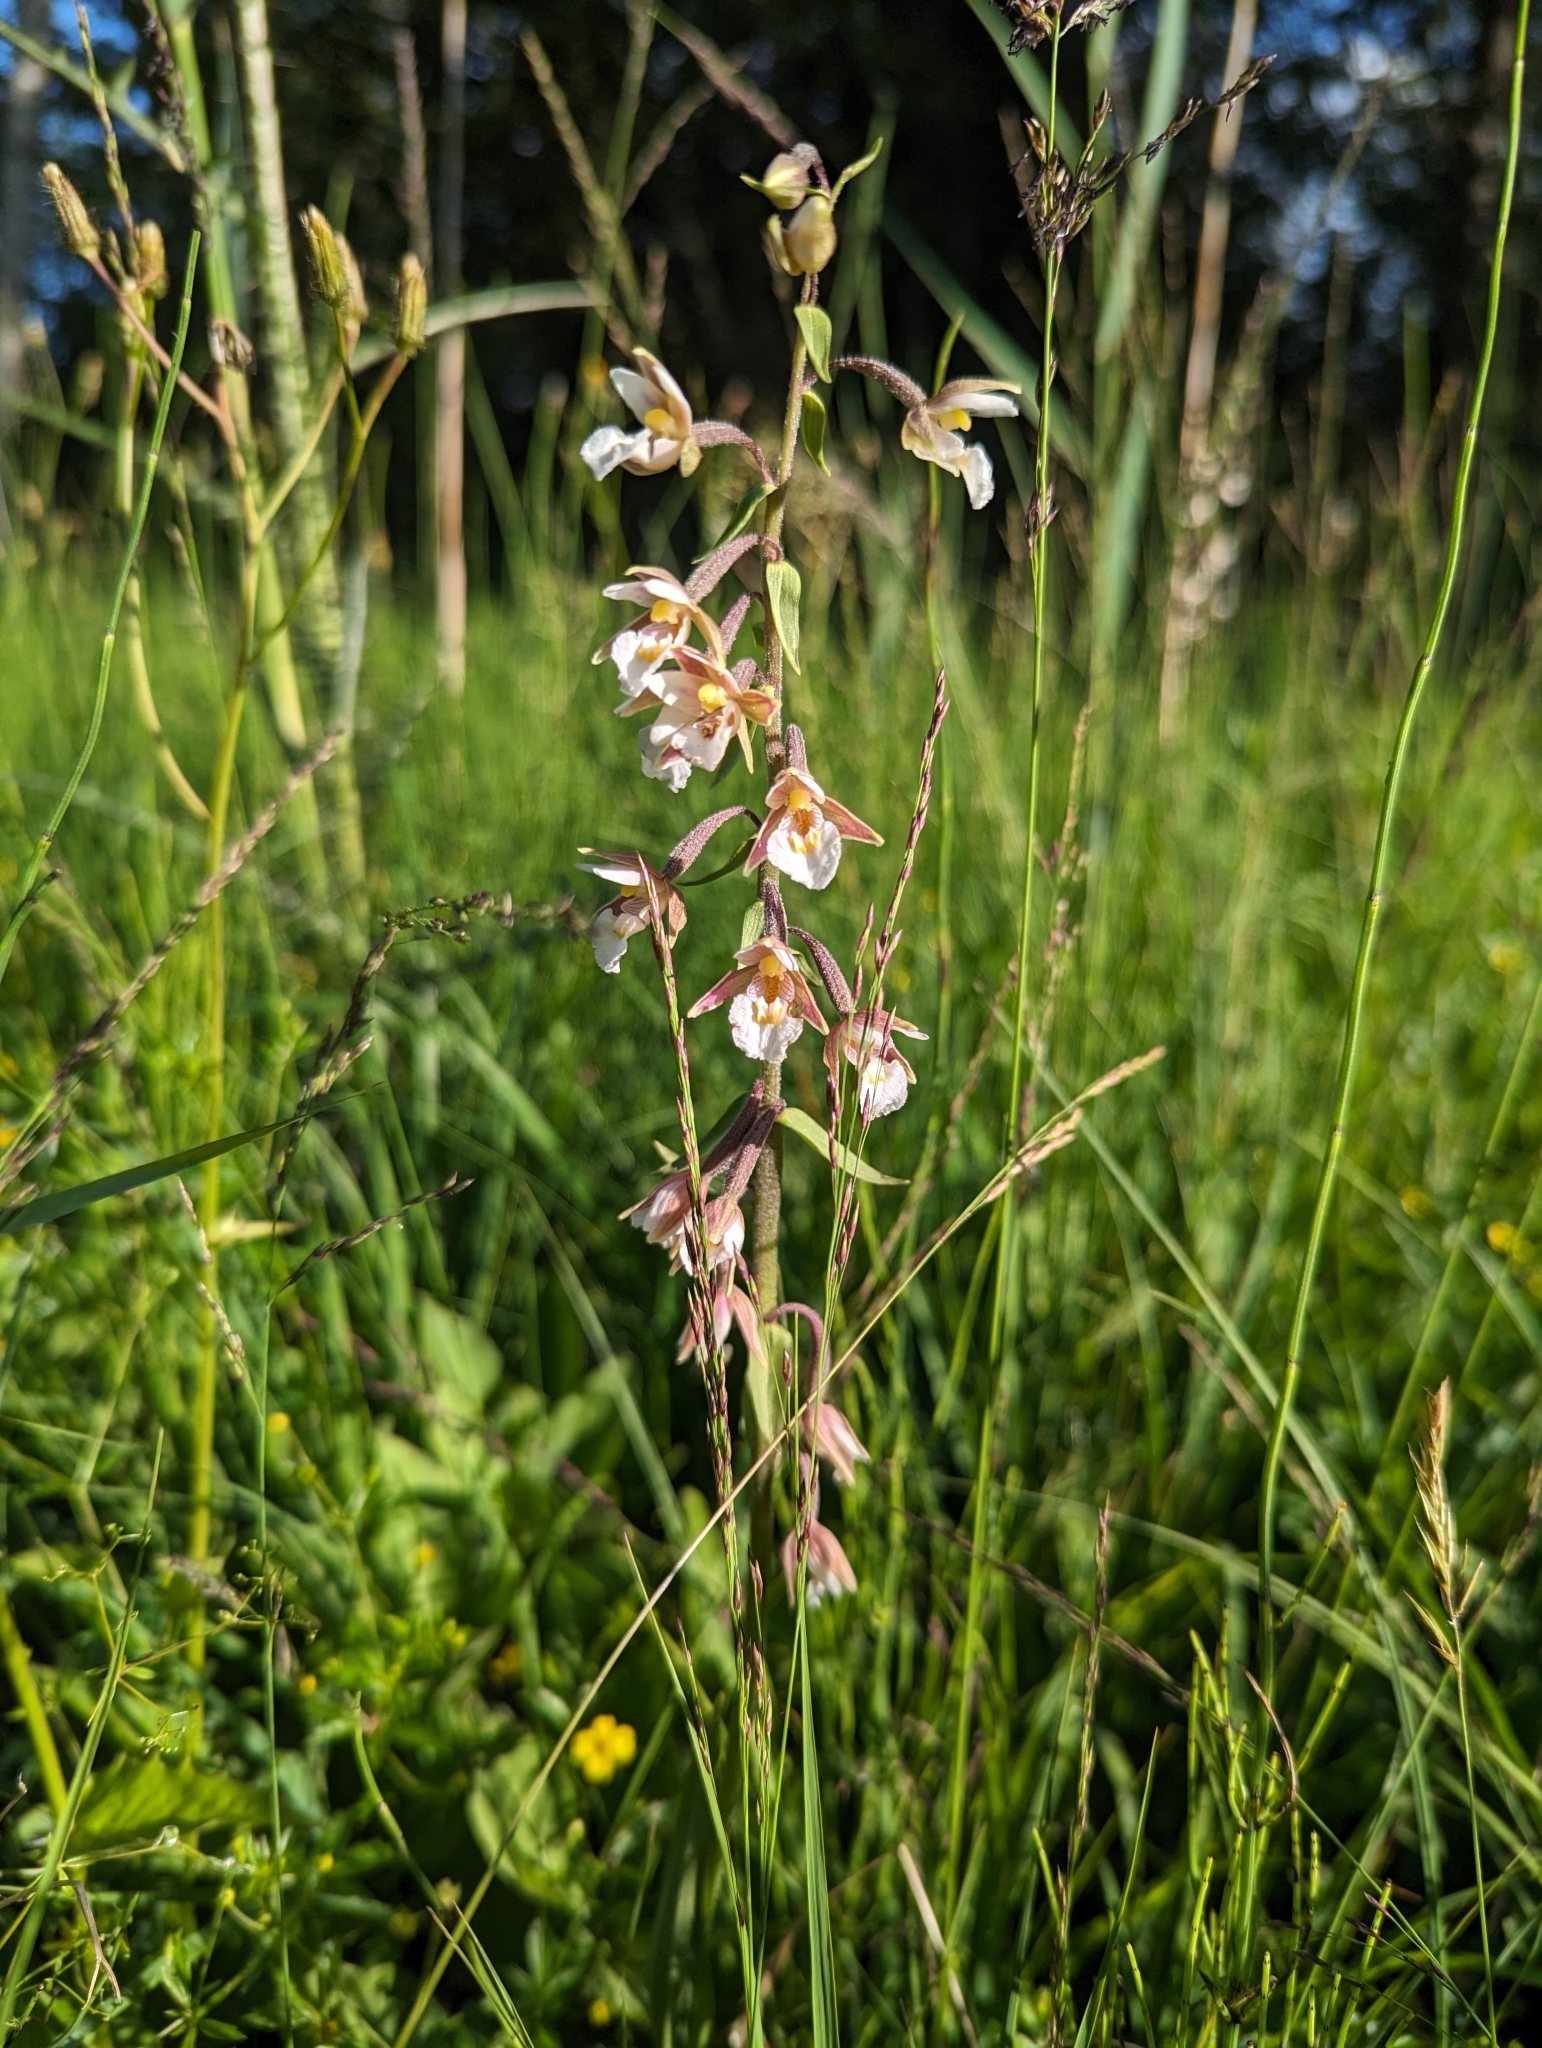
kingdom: Plantae
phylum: Tracheophyta
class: Liliopsida
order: Asparagales
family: Orchidaceae
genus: Epipactis
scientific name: Epipactis palustris
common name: Marsh helleborine
